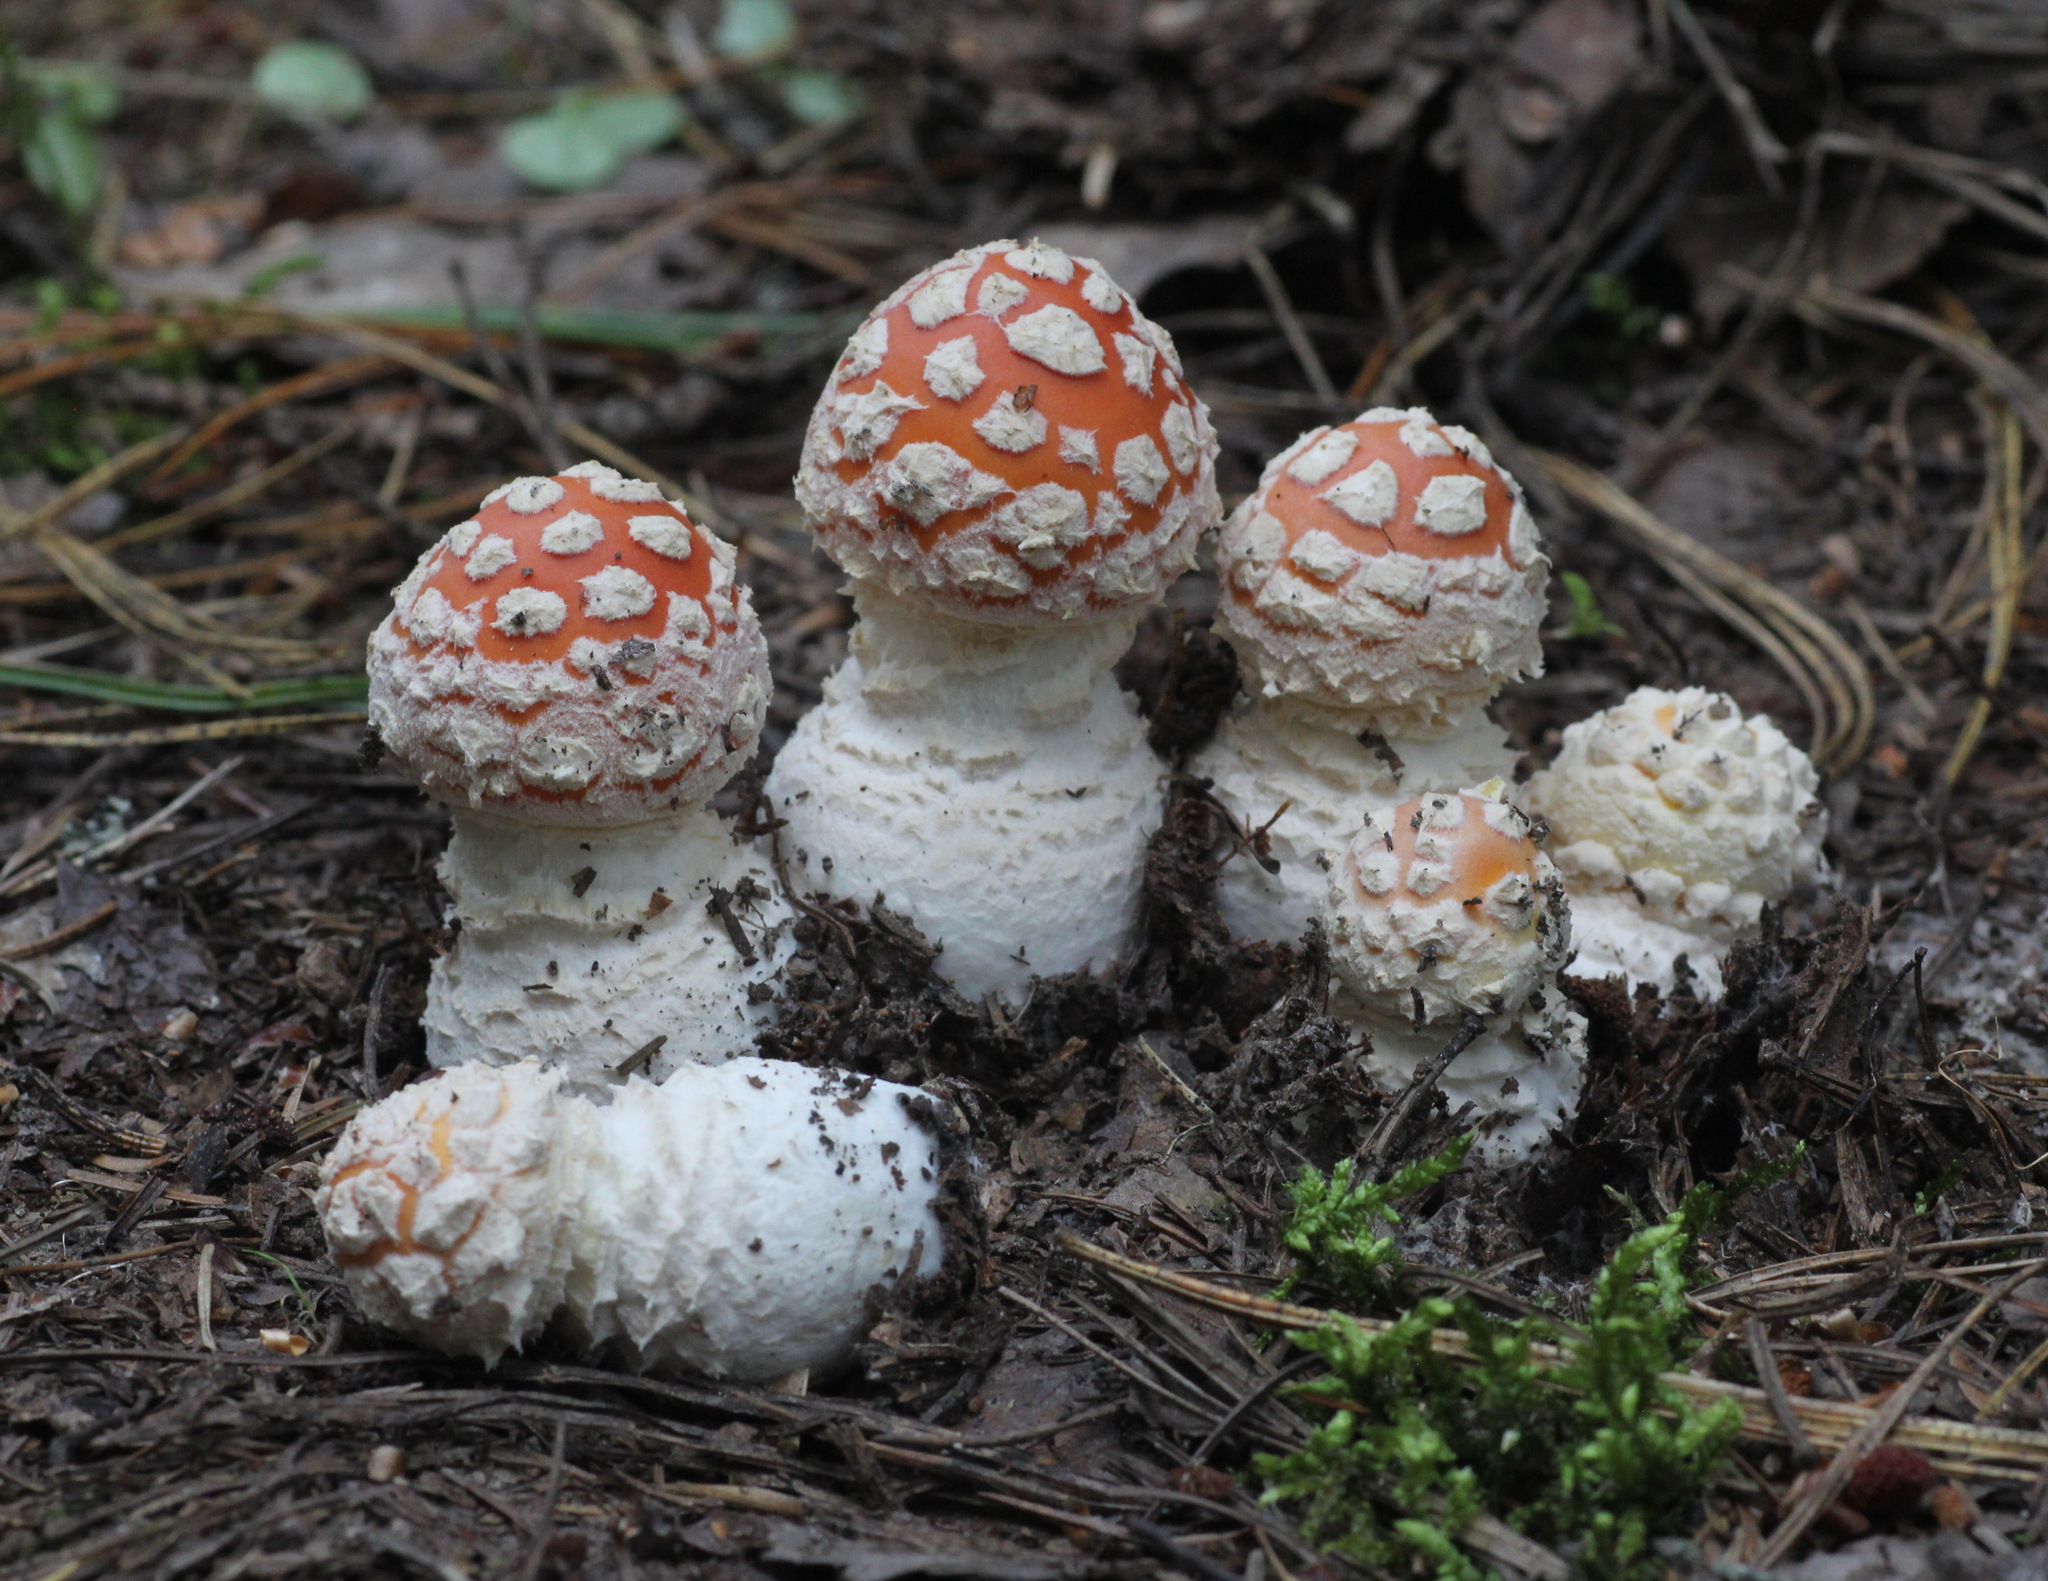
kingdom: Fungi
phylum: Basidiomycota
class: Agaricomycetes
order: Agaricales
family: Amanitaceae
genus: Amanita
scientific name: Amanita muscaria
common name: Fly agaric
